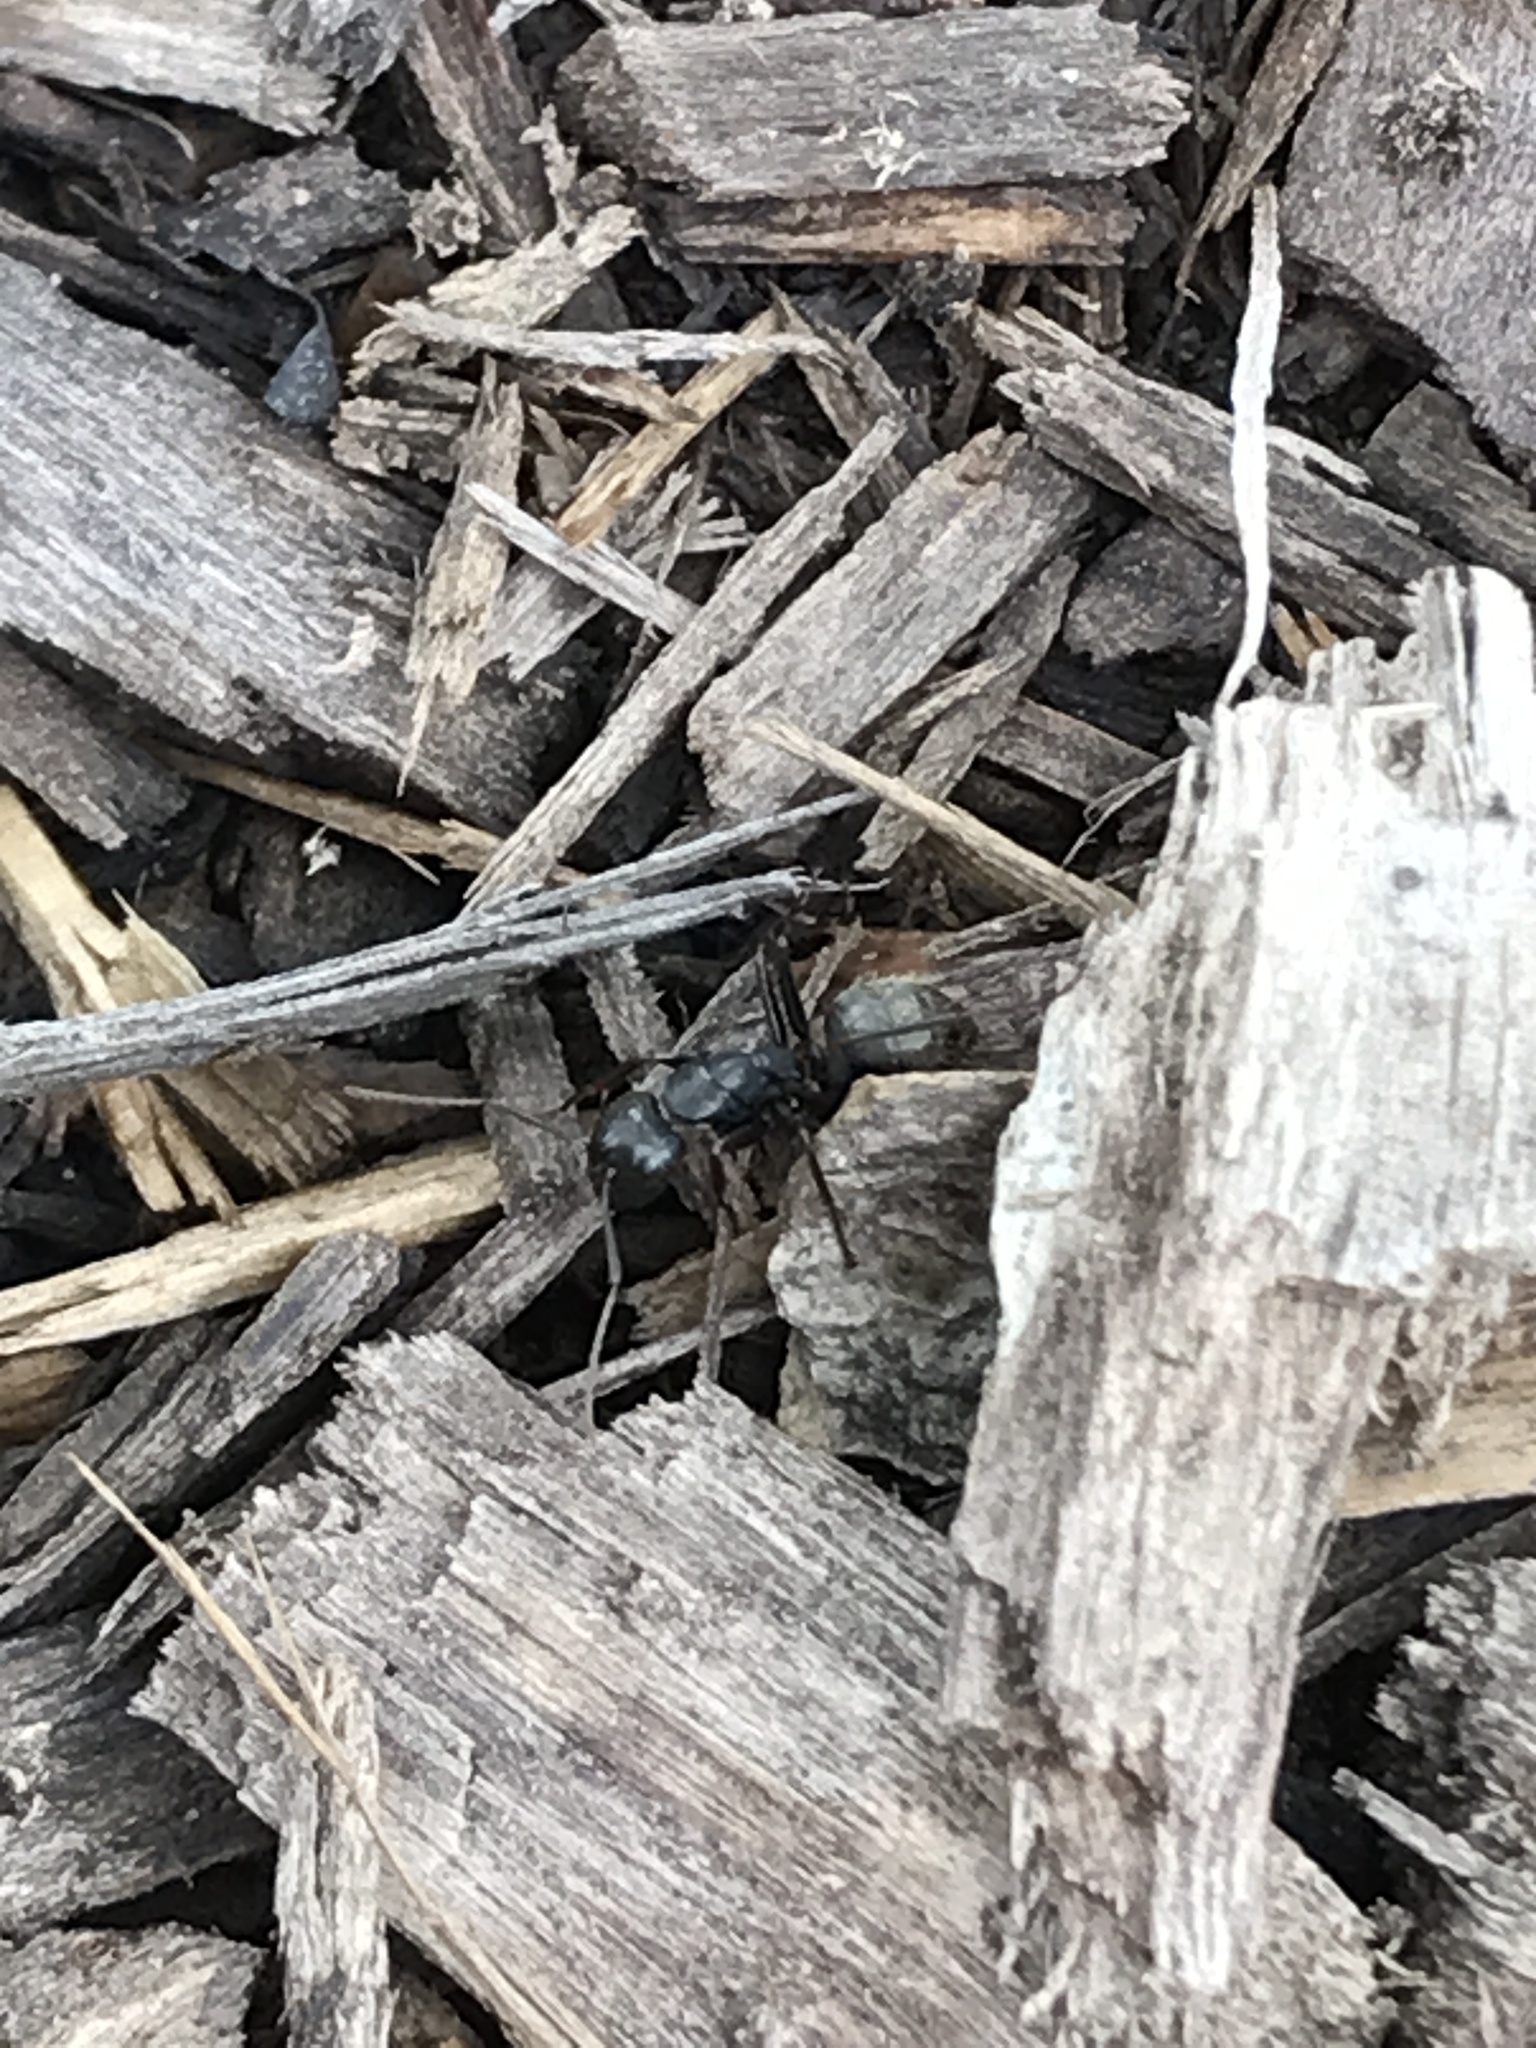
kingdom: Animalia
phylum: Arthropoda
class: Insecta
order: Hymenoptera
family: Formicidae
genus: Camponotus
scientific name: Camponotus pennsylvanicus
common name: Black carpenter ant
